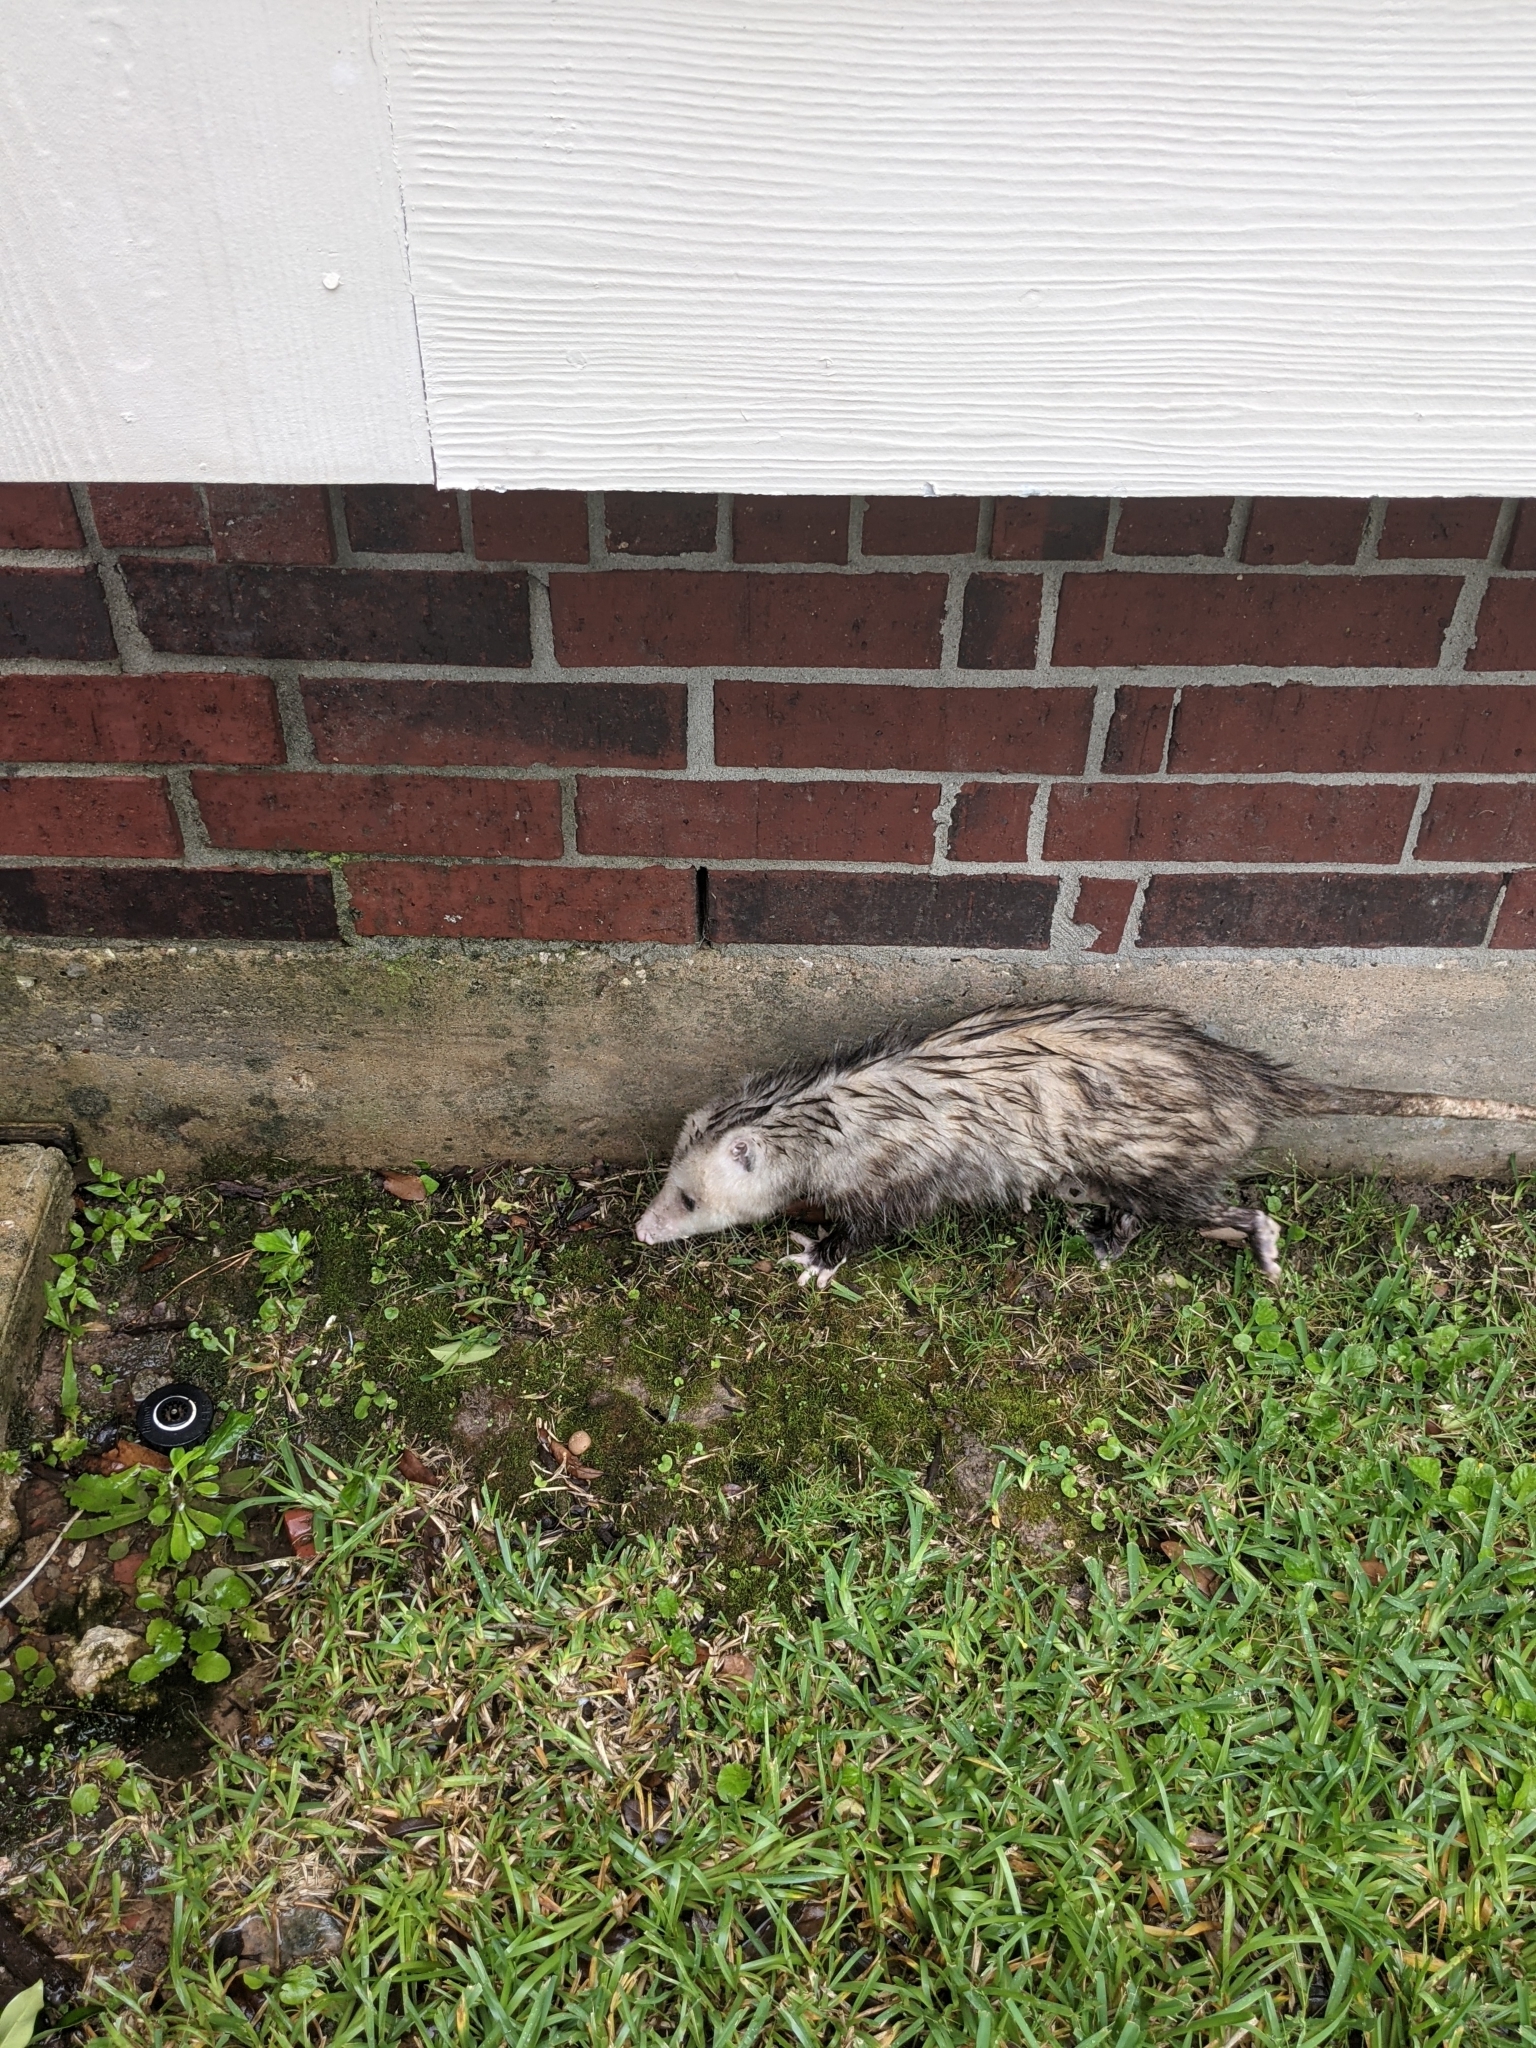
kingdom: Animalia
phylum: Chordata
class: Mammalia
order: Didelphimorphia
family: Didelphidae
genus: Didelphis
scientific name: Didelphis virginiana
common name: Virginia opossum
